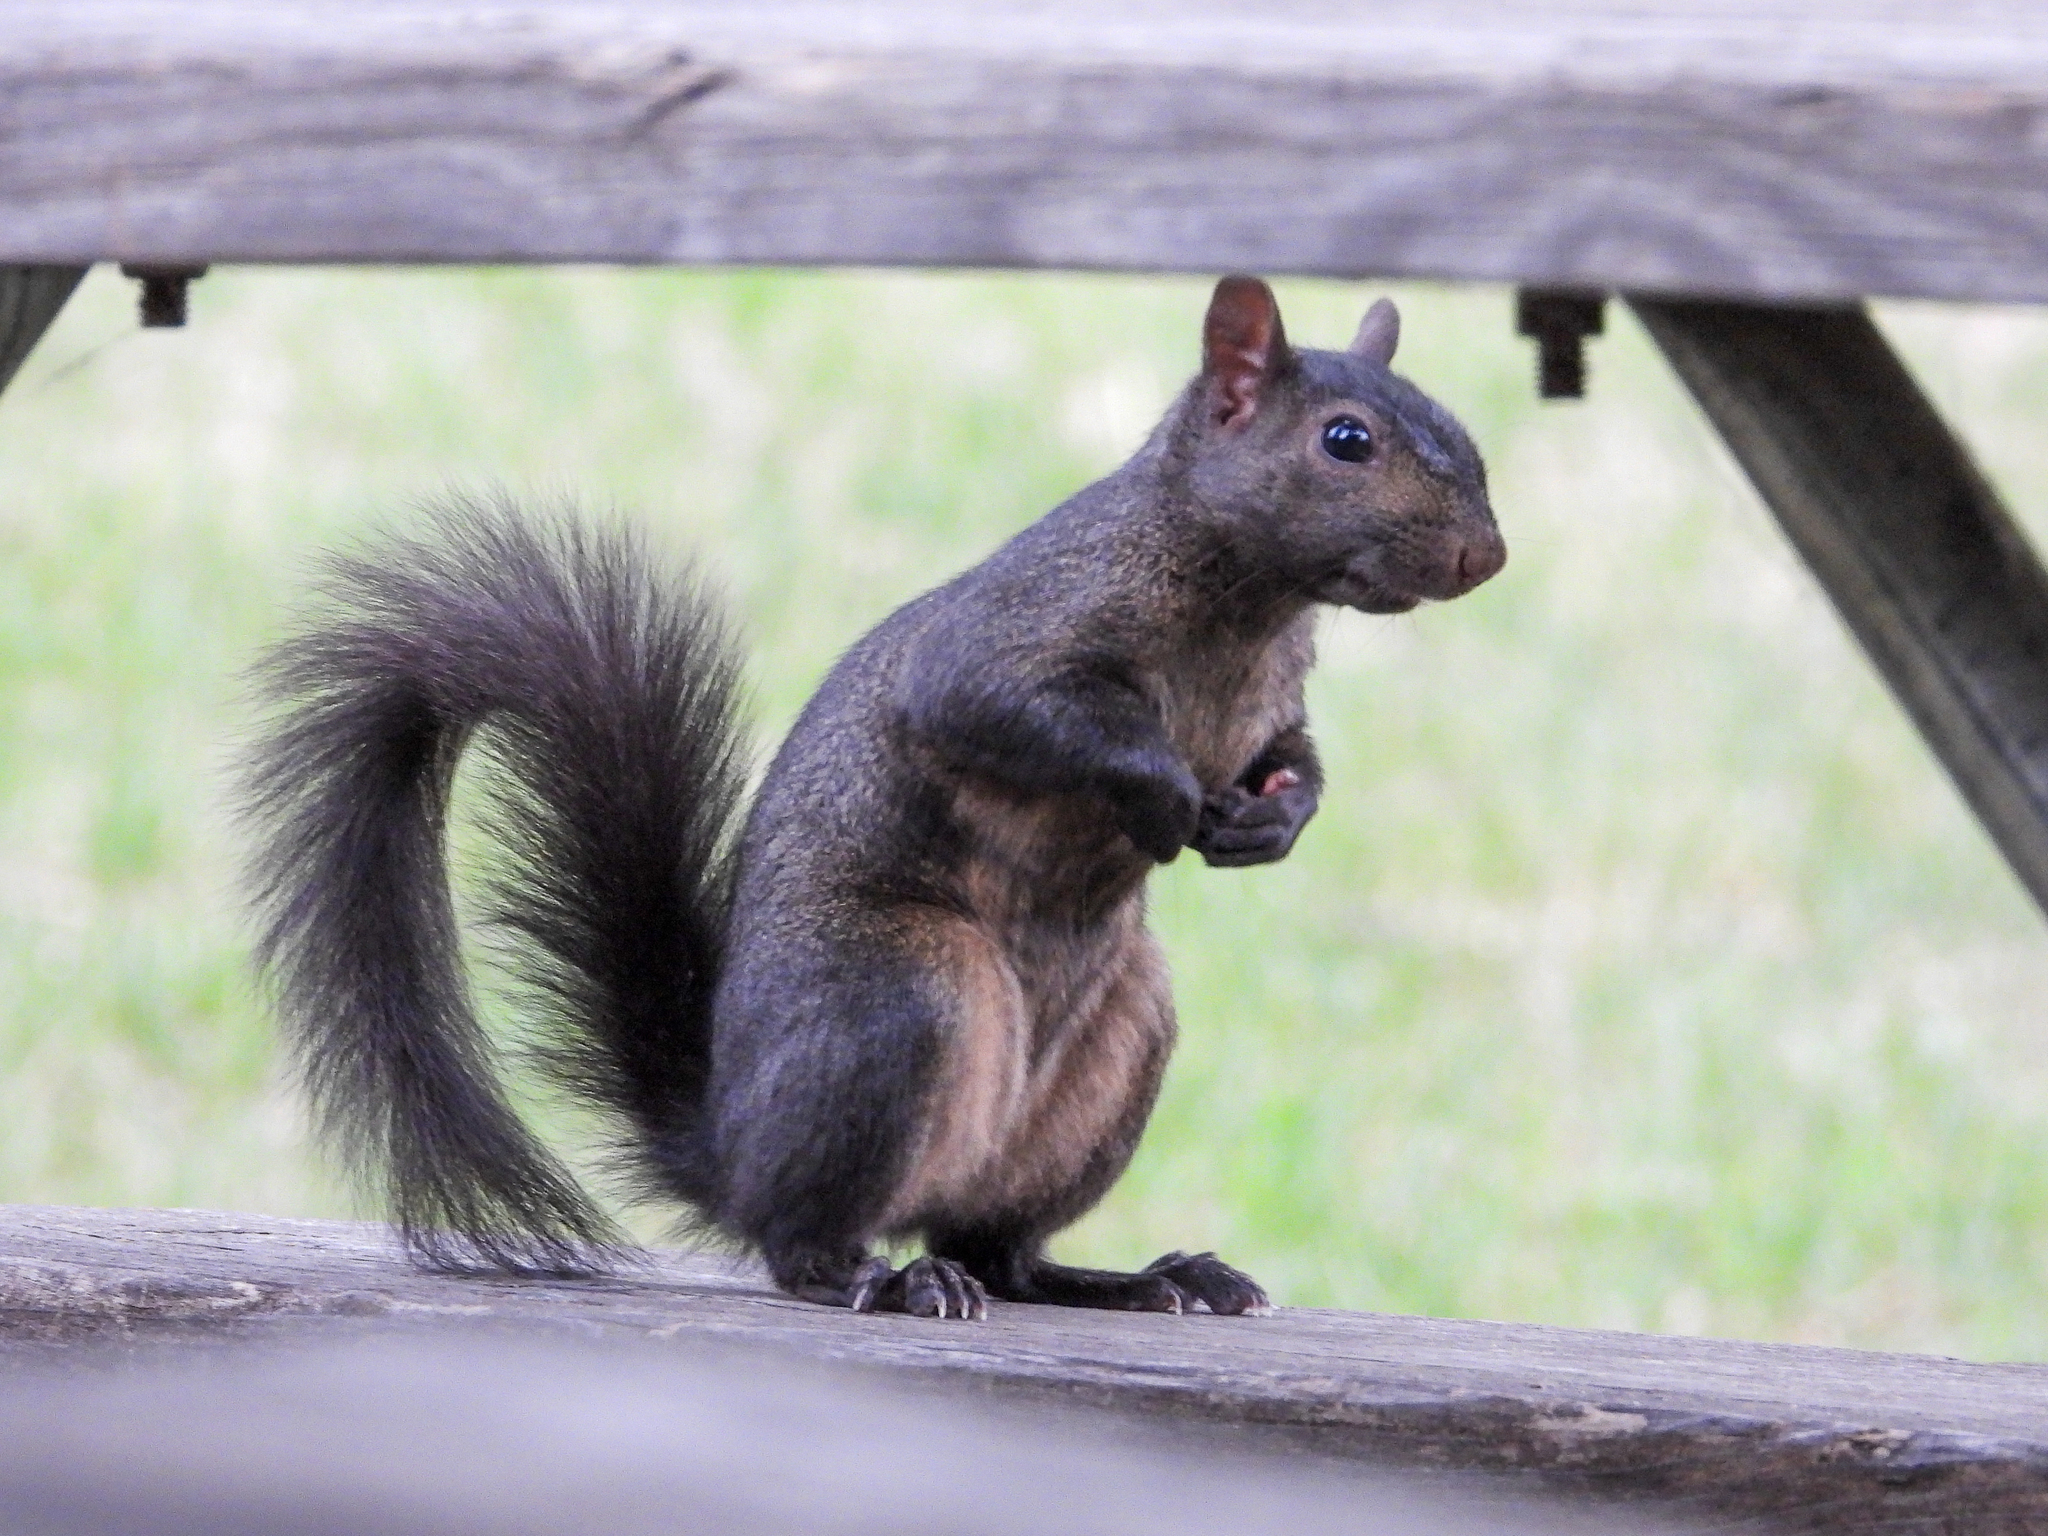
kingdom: Animalia
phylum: Chordata
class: Mammalia
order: Rodentia
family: Sciuridae
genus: Sciurus
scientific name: Sciurus carolinensis
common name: Eastern gray squirrel
